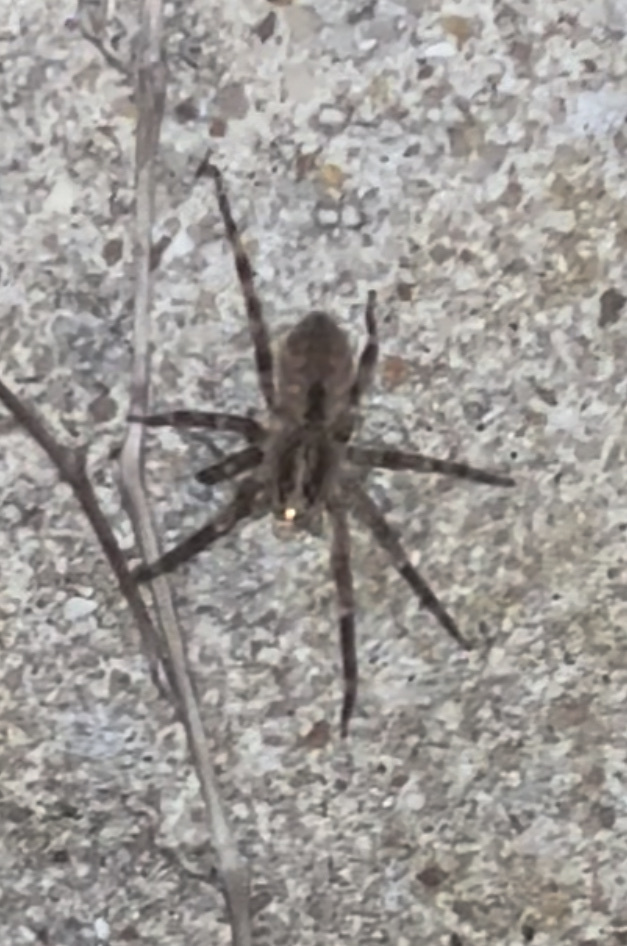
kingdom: Animalia
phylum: Arthropoda
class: Arachnida
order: Araneae
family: Zoropsidae
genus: Zoropsis
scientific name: Zoropsis spinimana
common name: Zoropsid spider
